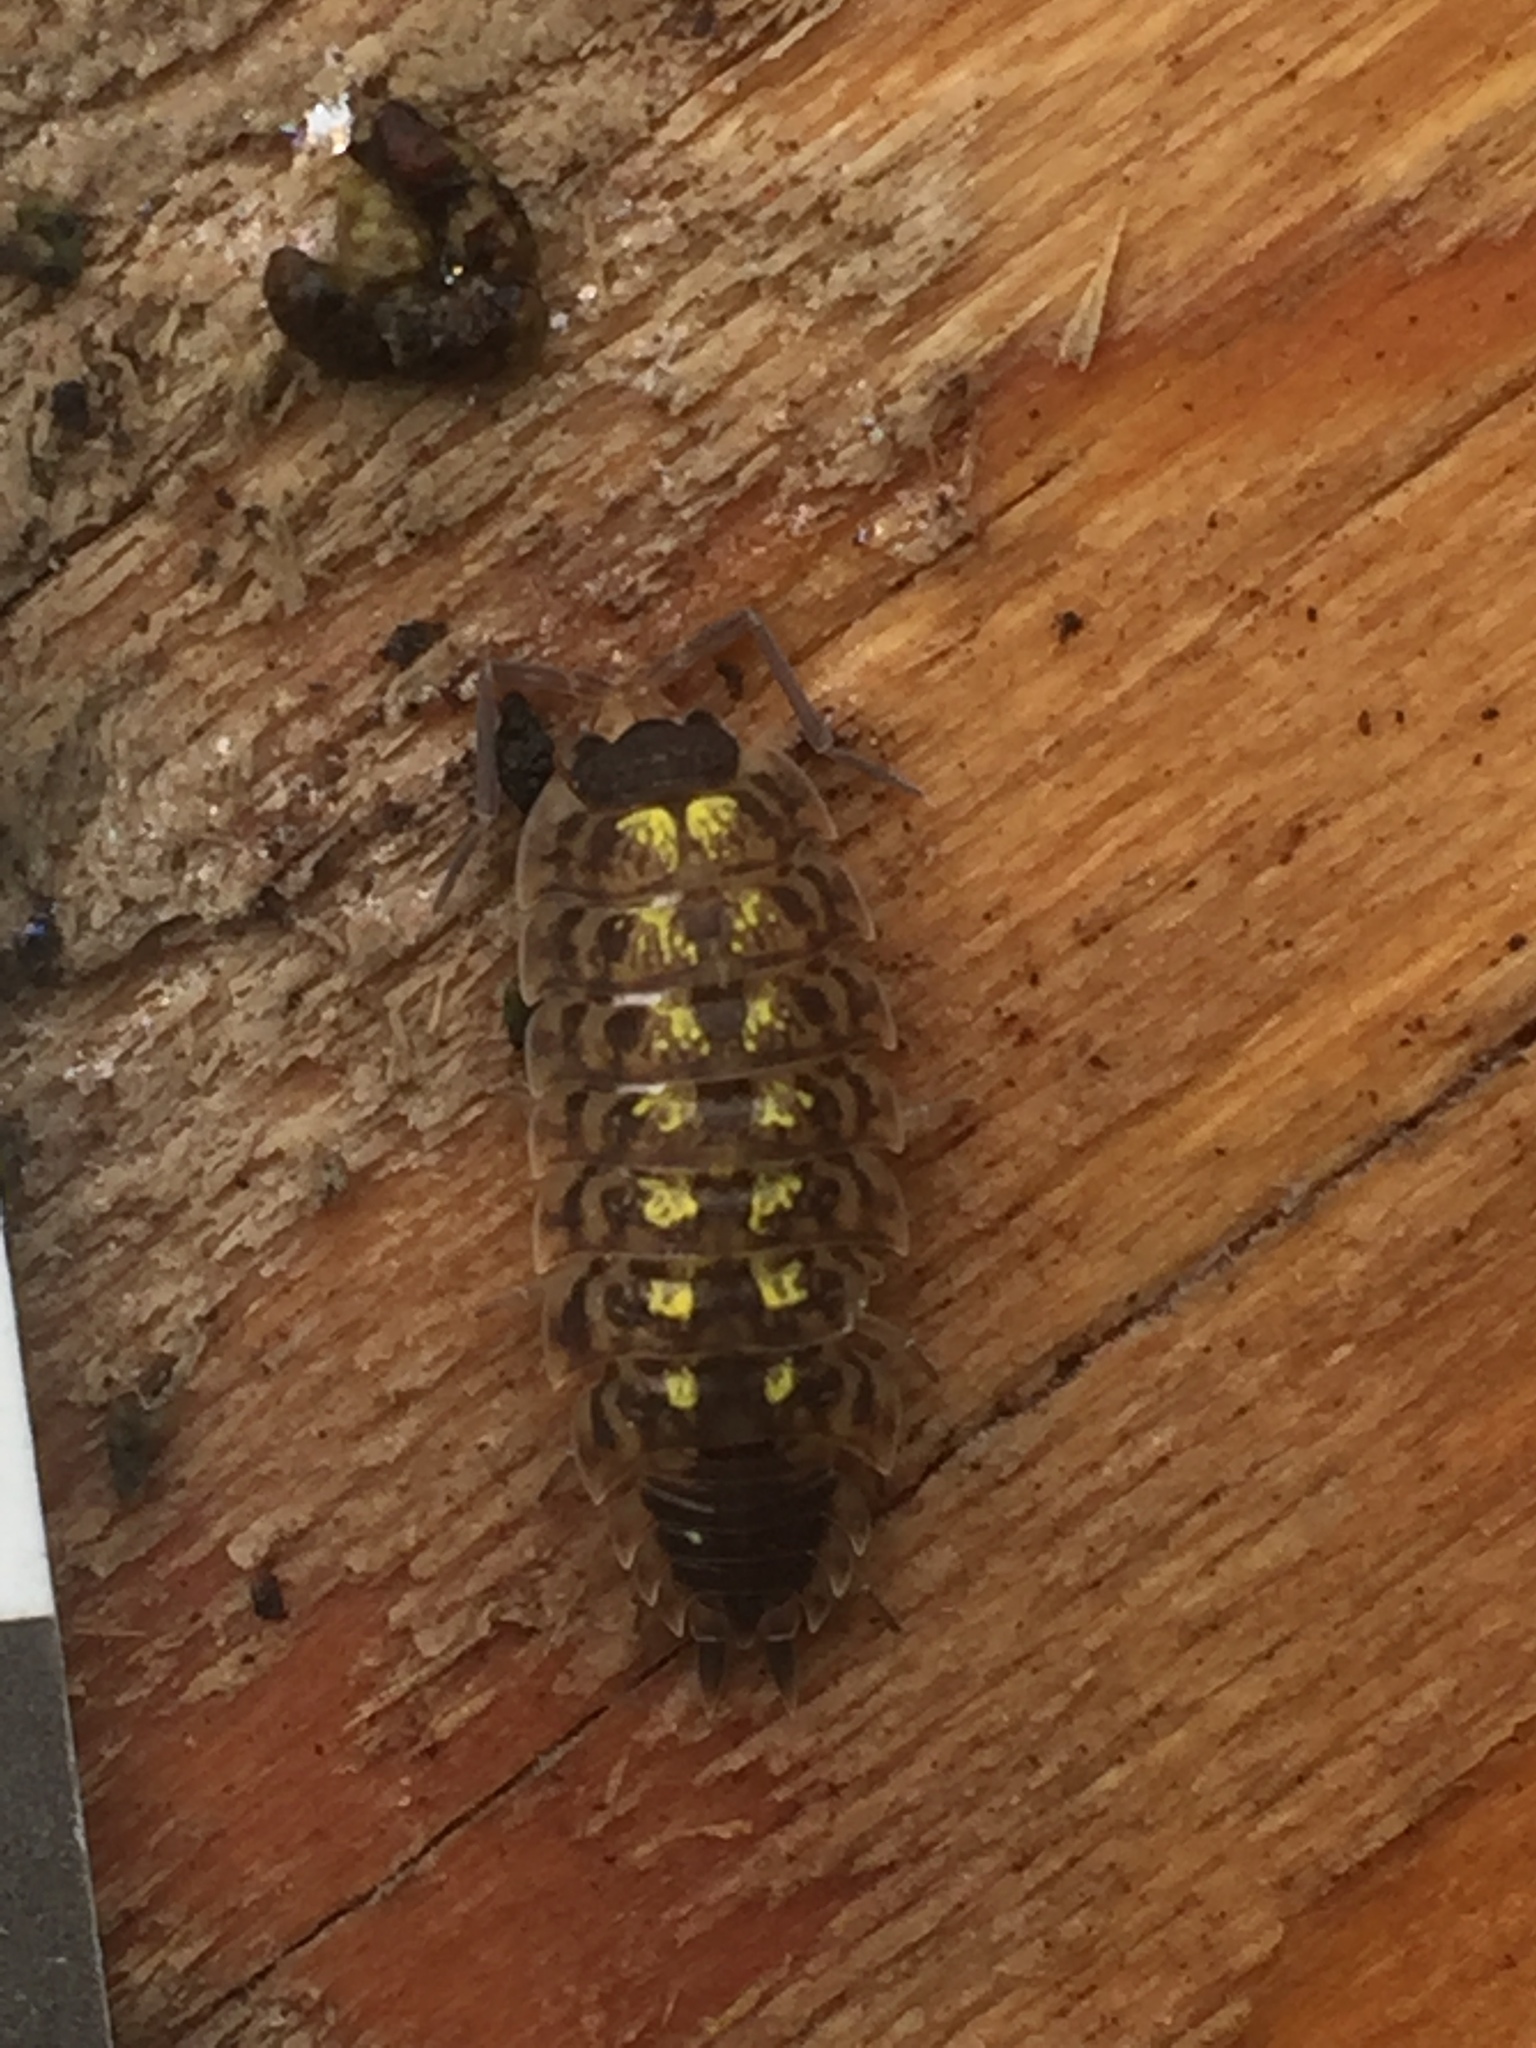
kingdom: Animalia
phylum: Arthropoda
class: Malacostraca
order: Isopoda
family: Porcellionidae
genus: Porcellio
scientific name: Porcellio spinicornis
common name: Painted woodlouse
